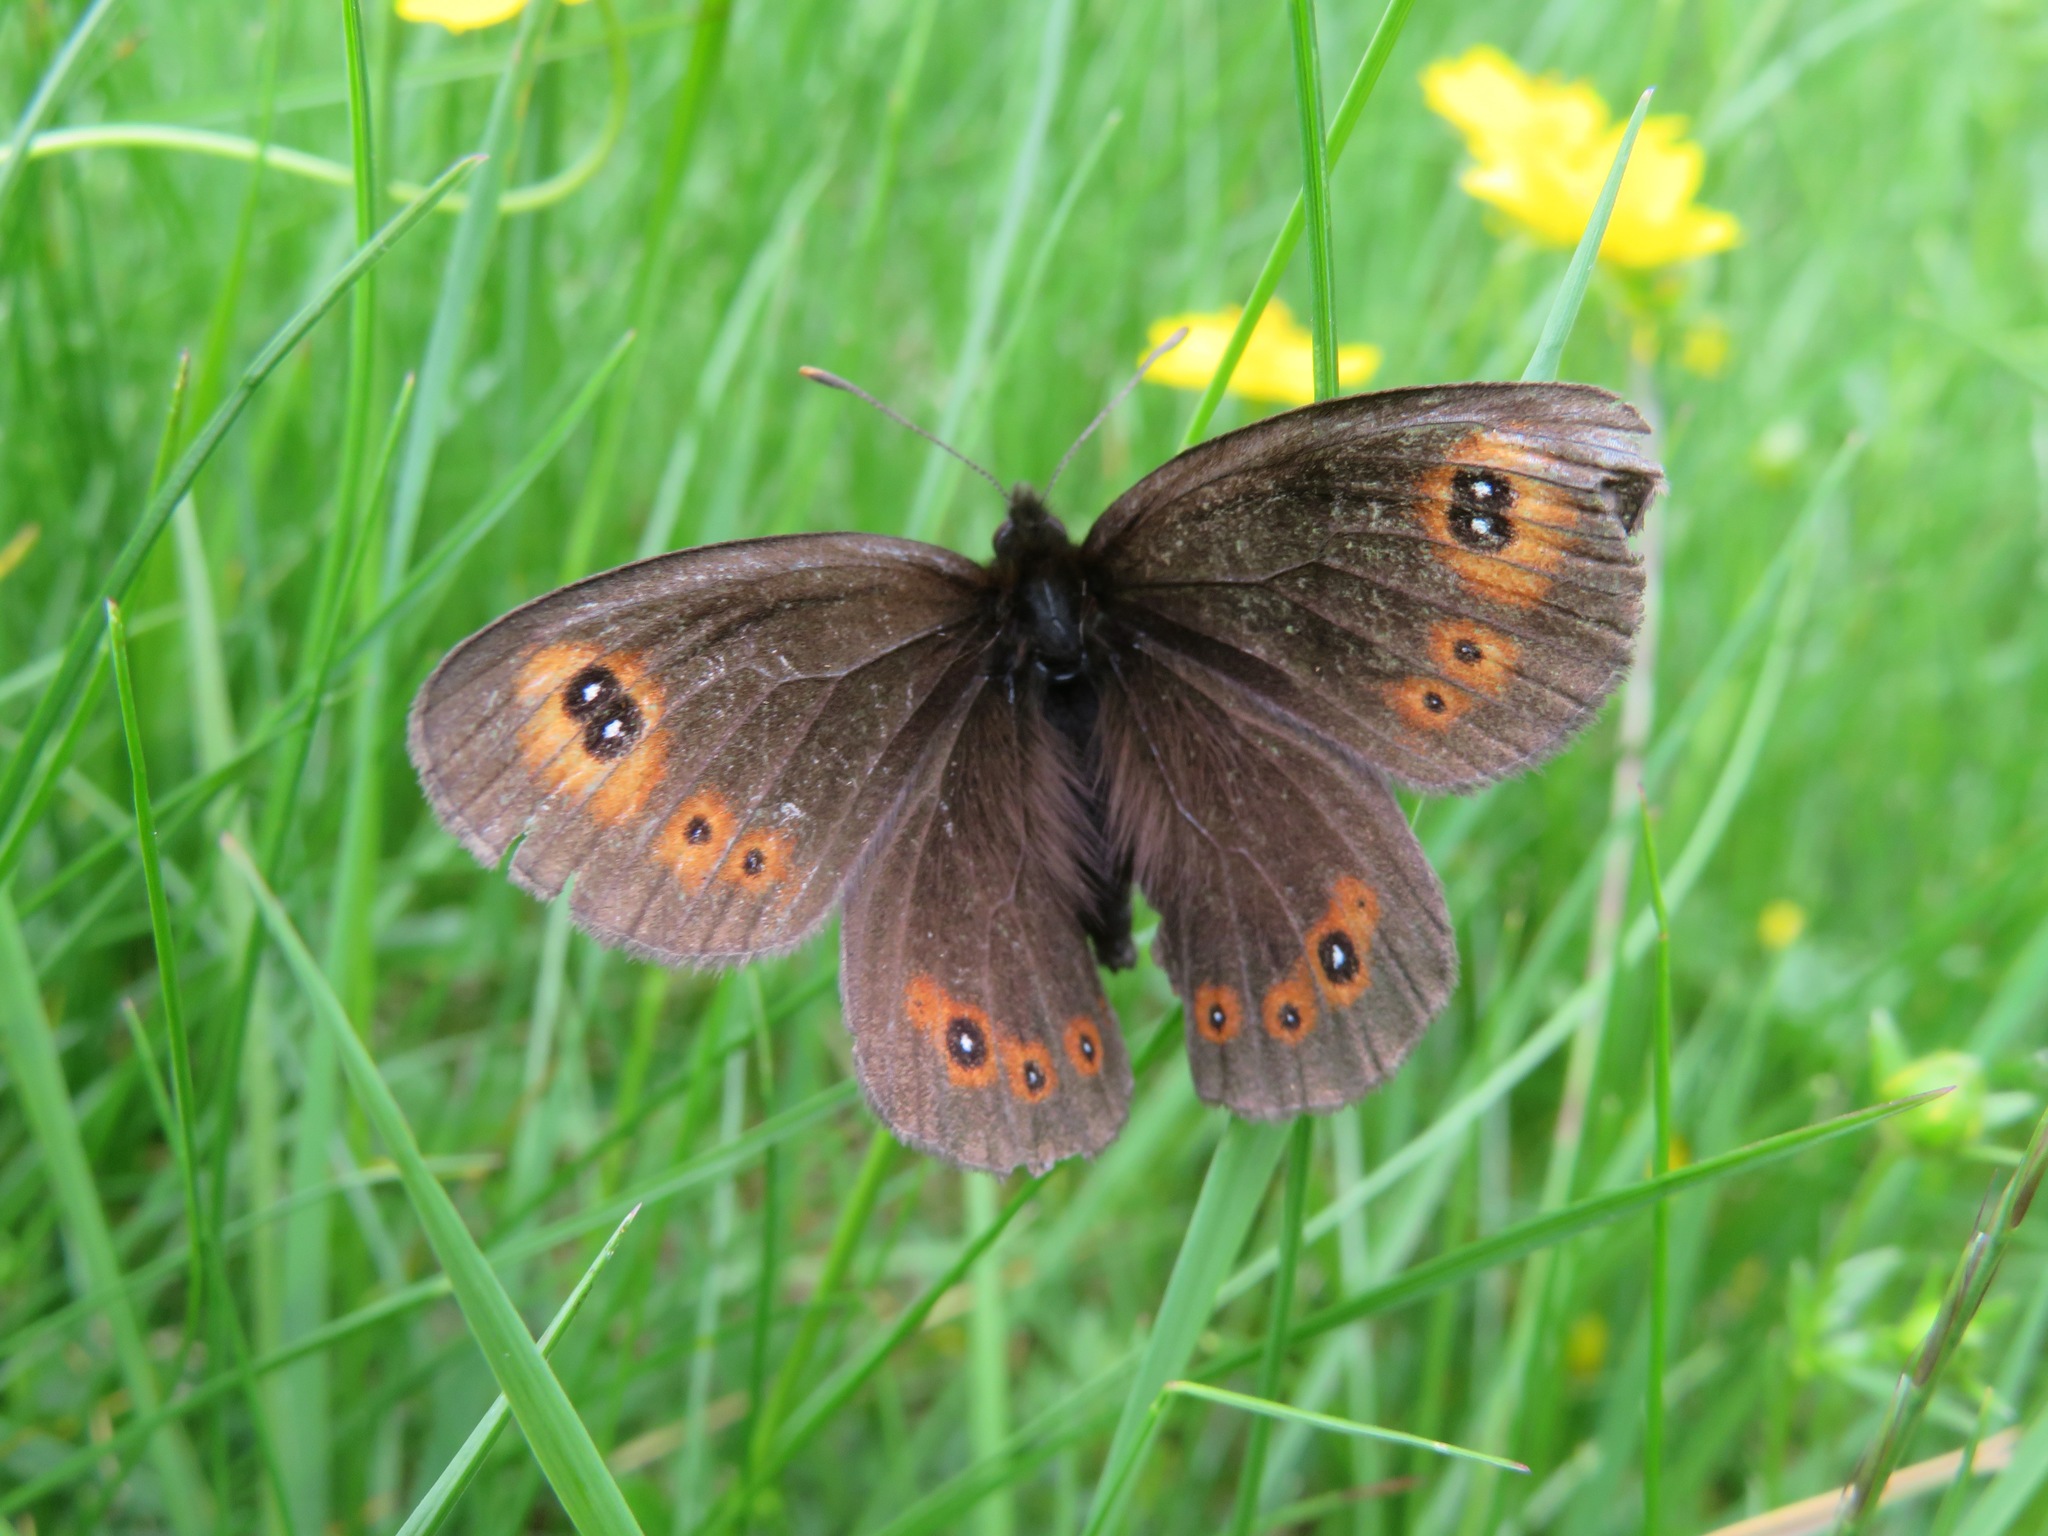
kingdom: Animalia
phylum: Arthropoda
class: Insecta
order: Lepidoptera
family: Nymphalidae
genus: Erebia
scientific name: Erebia medusa
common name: Woodland ringlet
